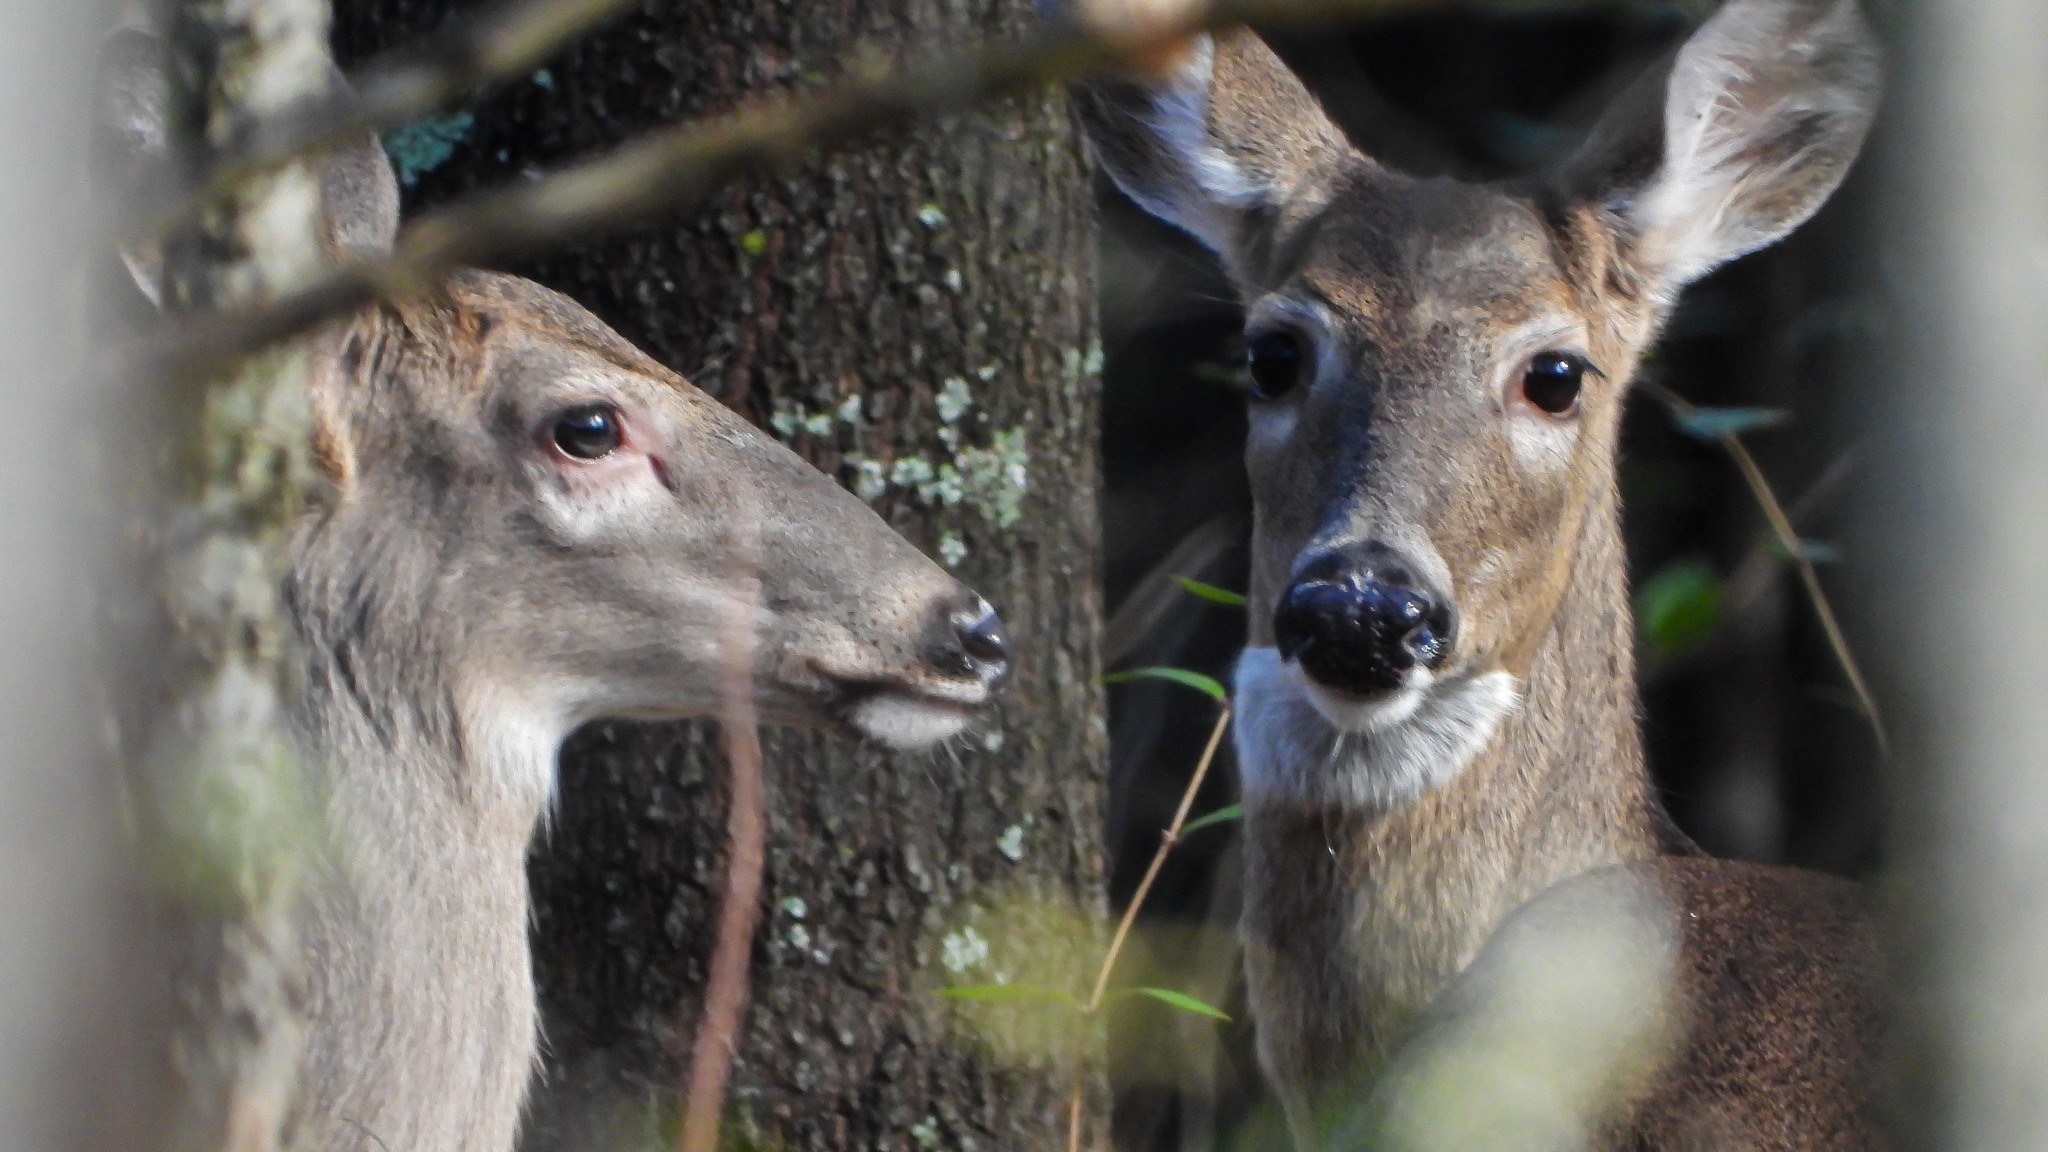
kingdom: Animalia
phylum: Chordata
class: Mammalia
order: Artiodactyla
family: Cervidae
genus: Odocoileus
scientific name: Odocoileus virginianus
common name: White-tailed deer
